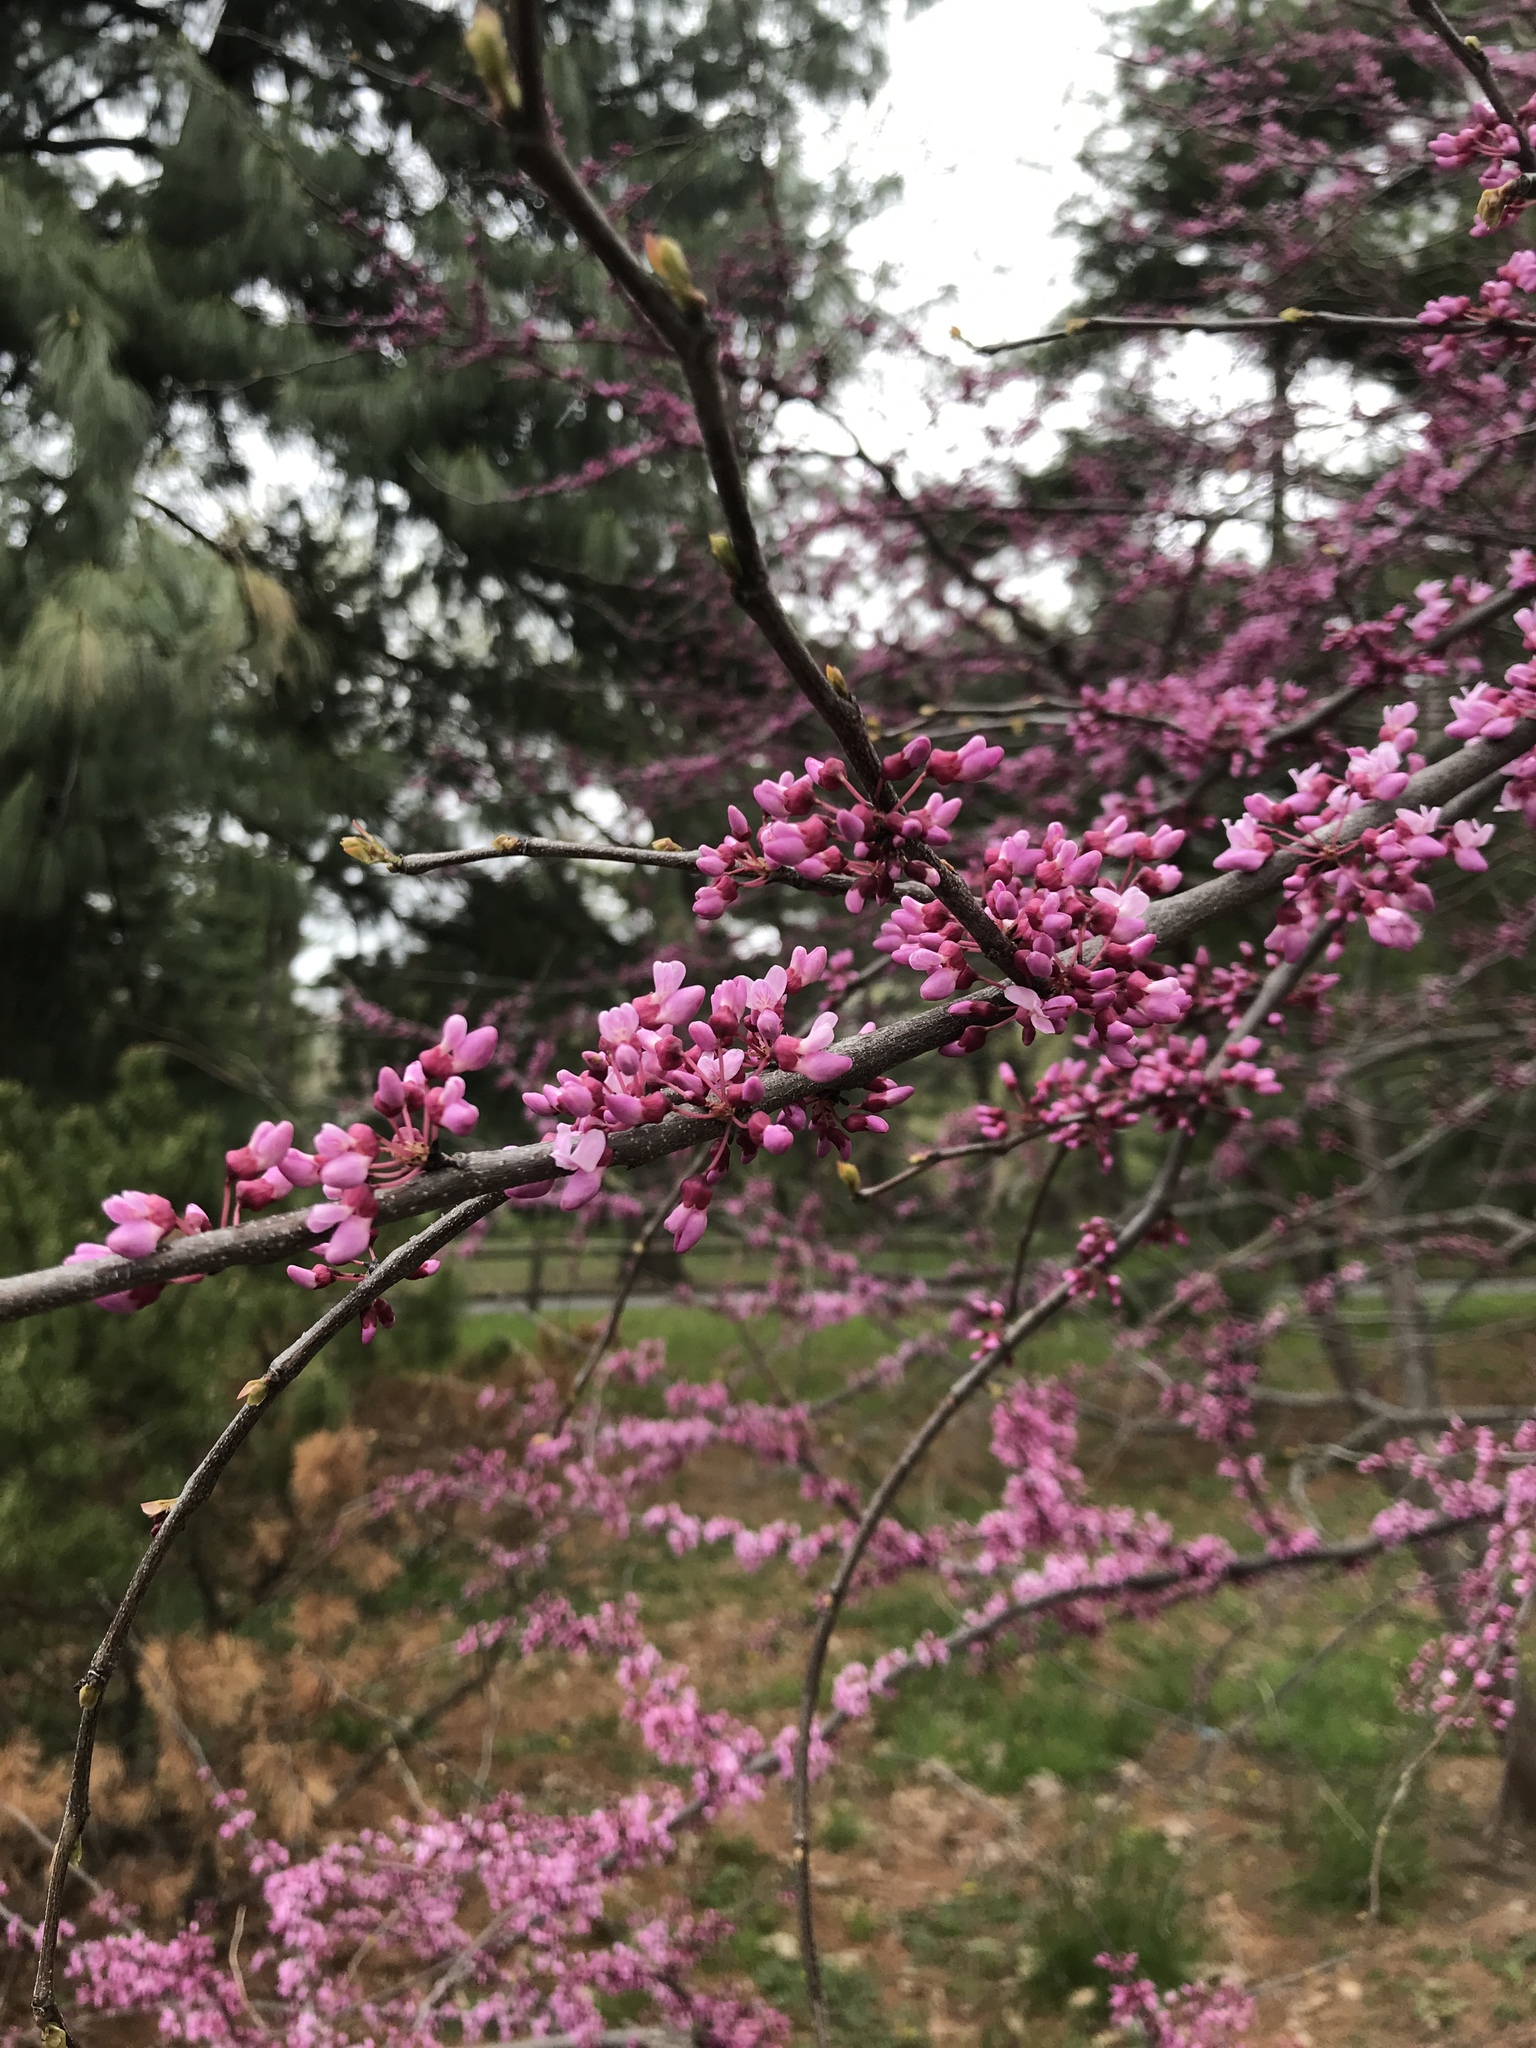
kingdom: Plantae
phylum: Tracheophyta
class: Magnoliopsida
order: Fabales
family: Fabaceae
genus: Cercis
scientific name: Cercis canadensis
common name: Eastern redbud
